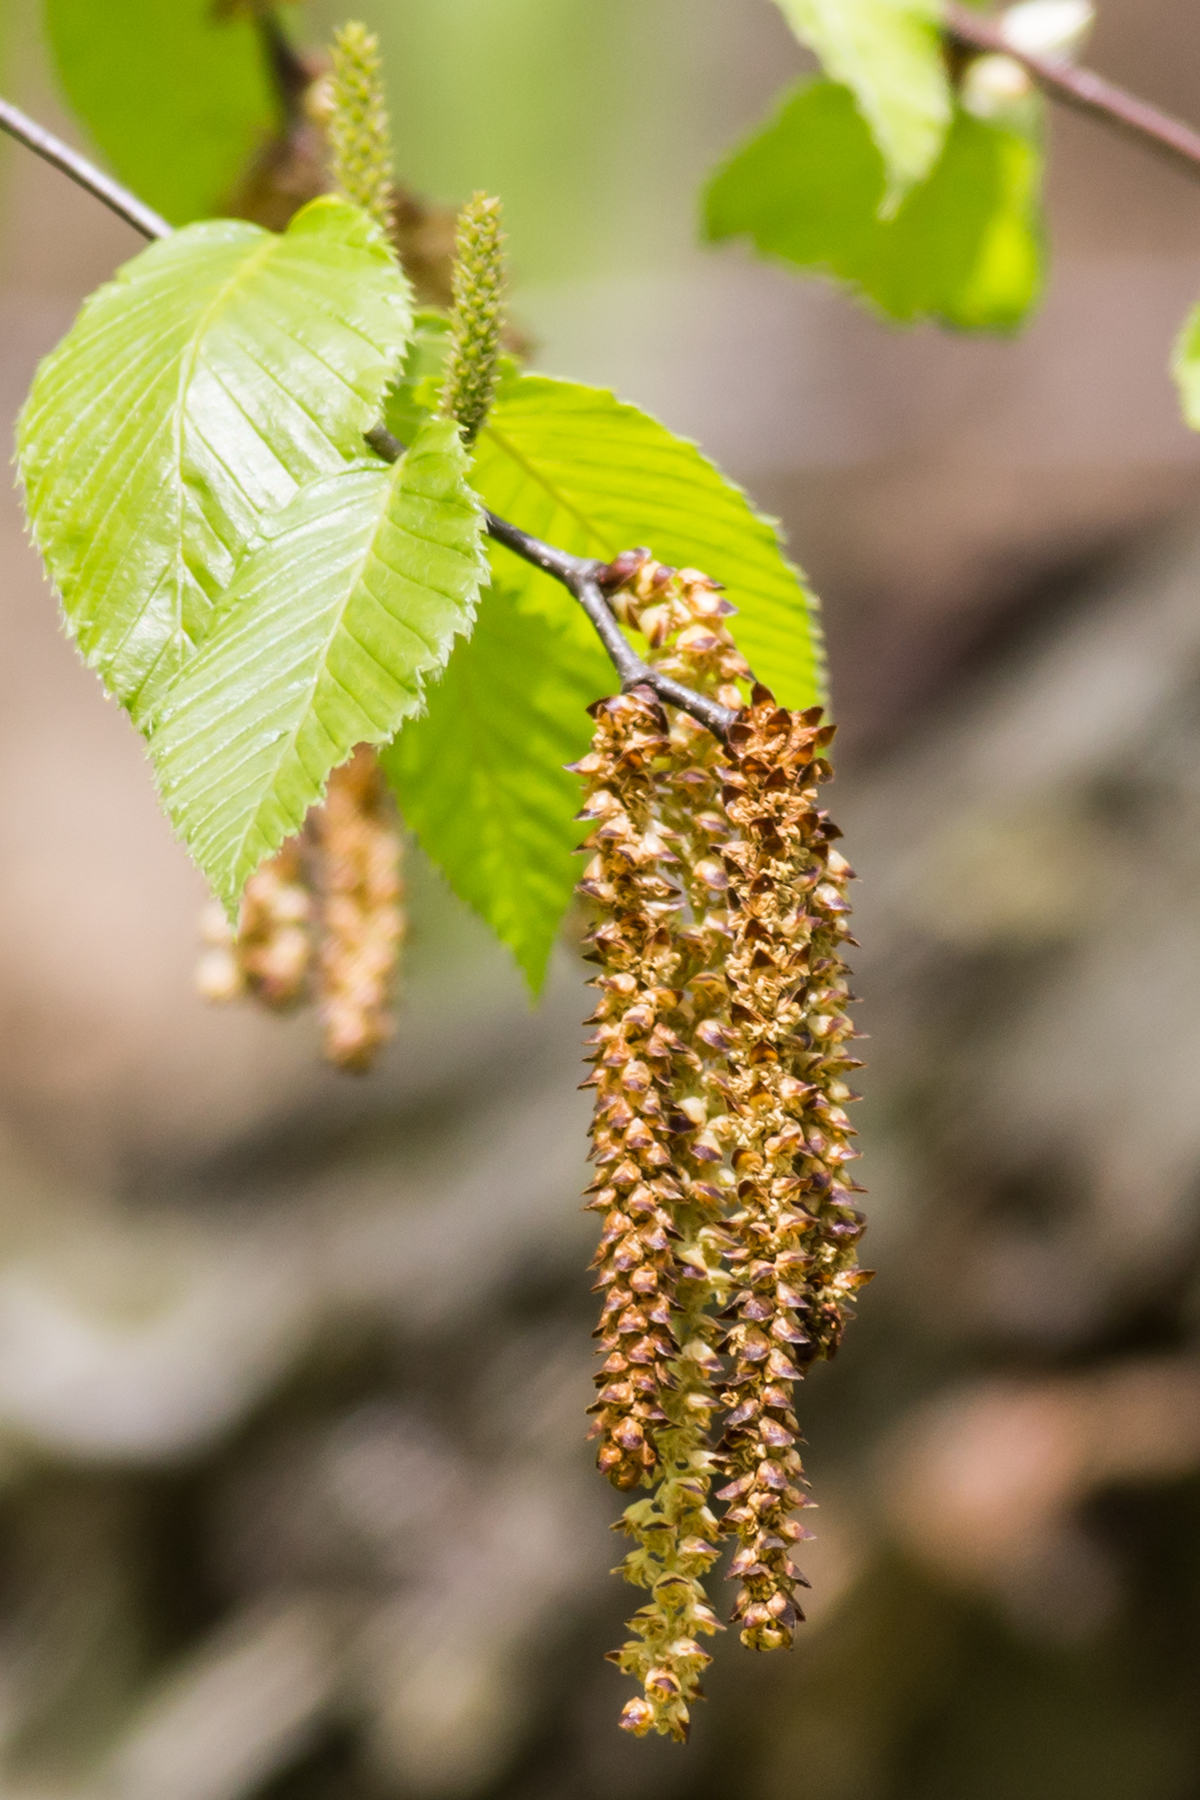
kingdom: Plantae
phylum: Tracheophyta
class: Magnoliopsida
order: Fagales
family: Betulaceae
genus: Betula
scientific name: Betula lenta
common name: Black birch
